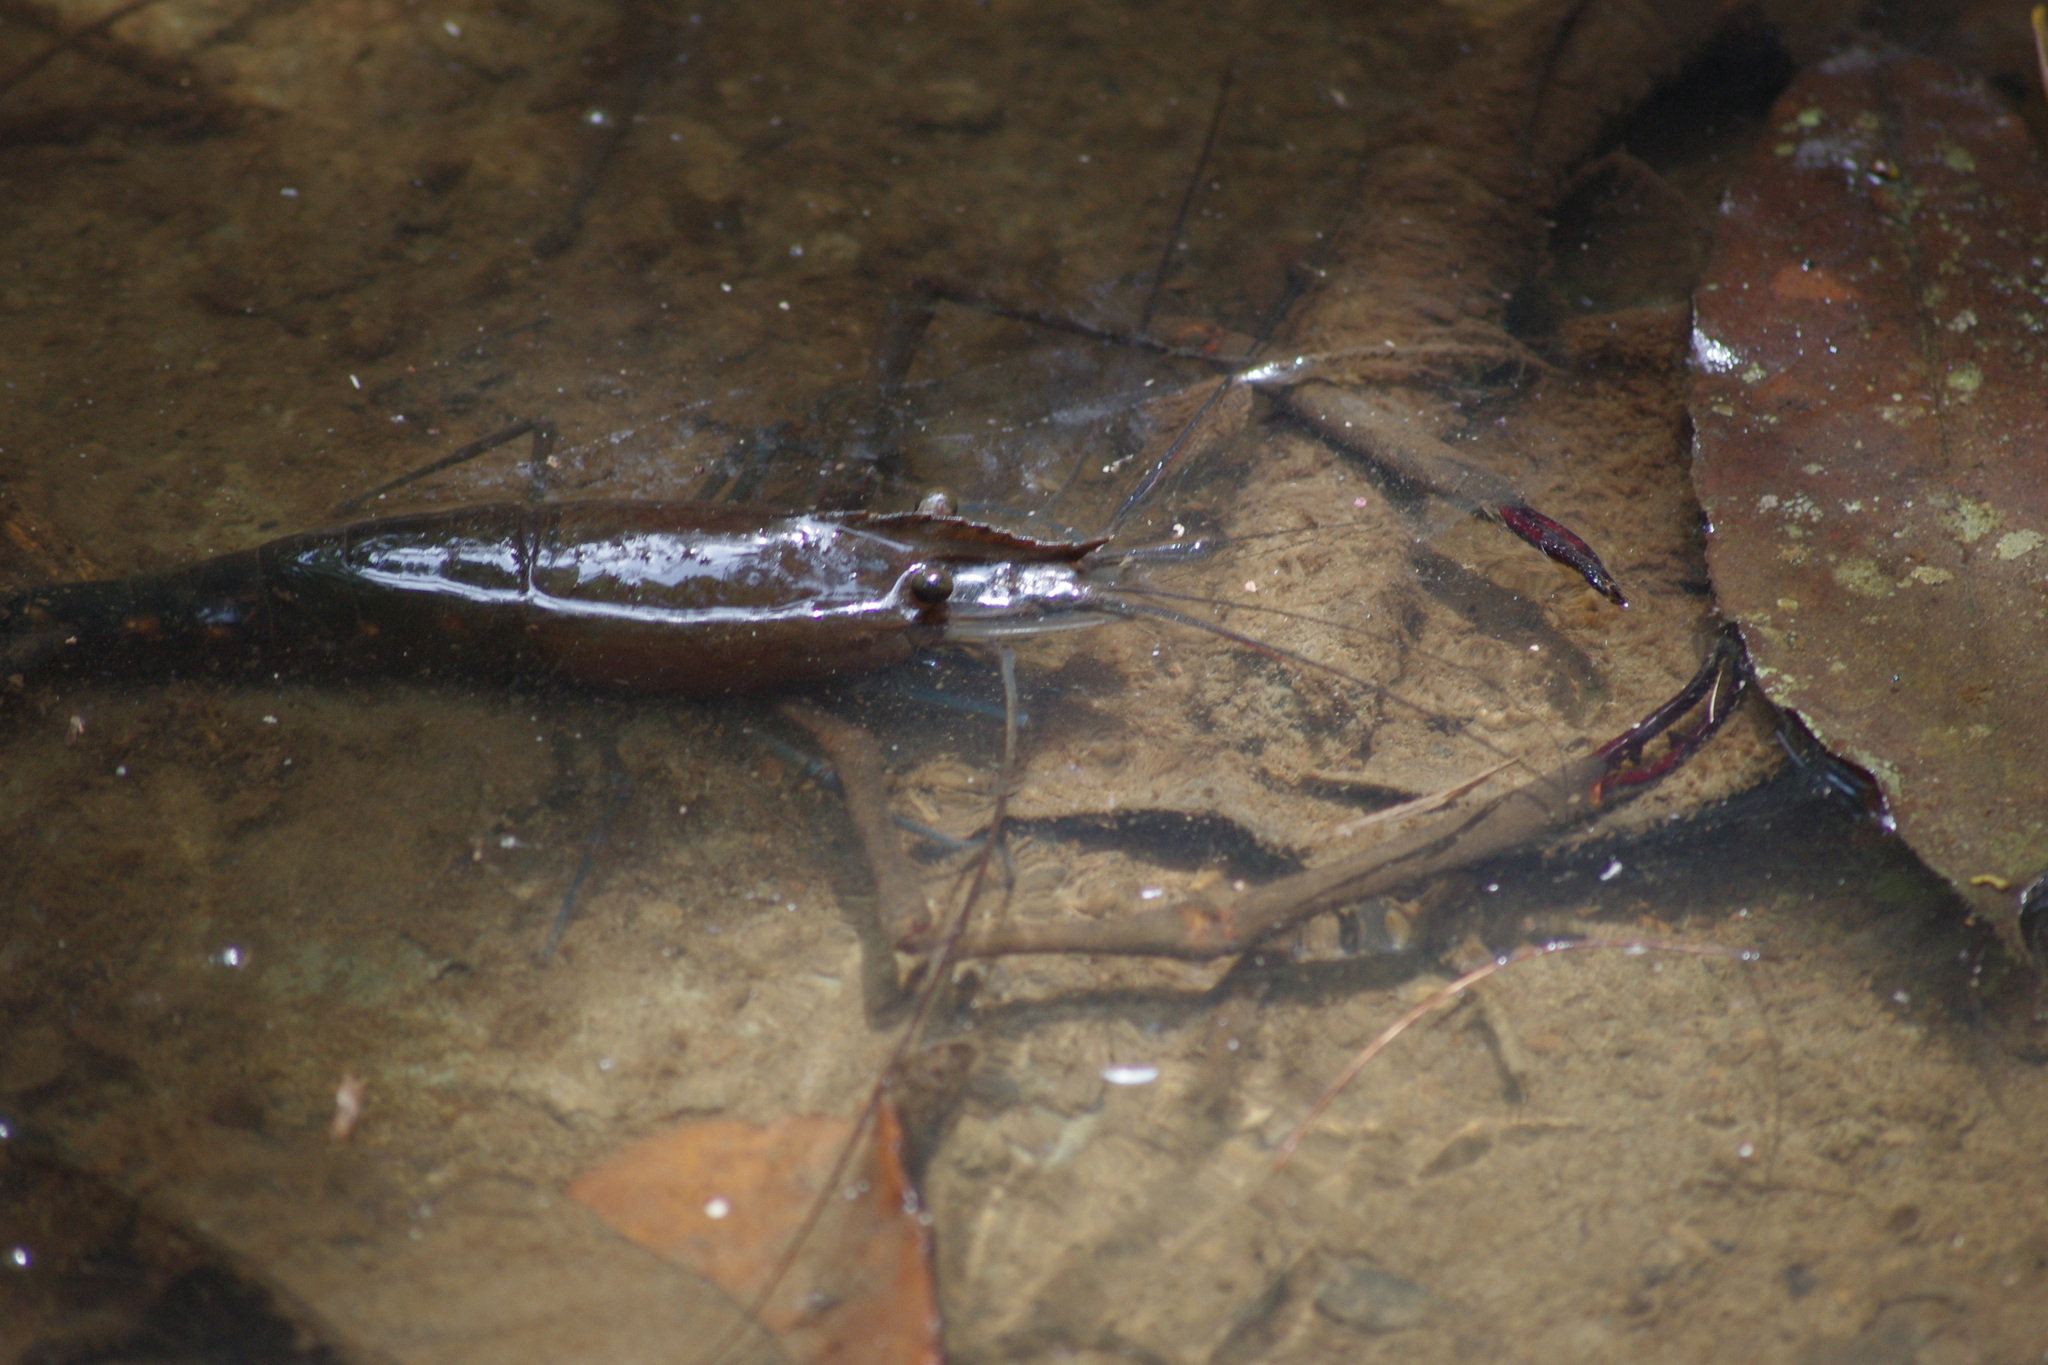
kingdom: Animalia
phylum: Arthropoda
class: Malacostraca
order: Decapoda
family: Palaemonidae
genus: Macrobrachium
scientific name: Macrobrachium lar
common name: Monkey river prawn
